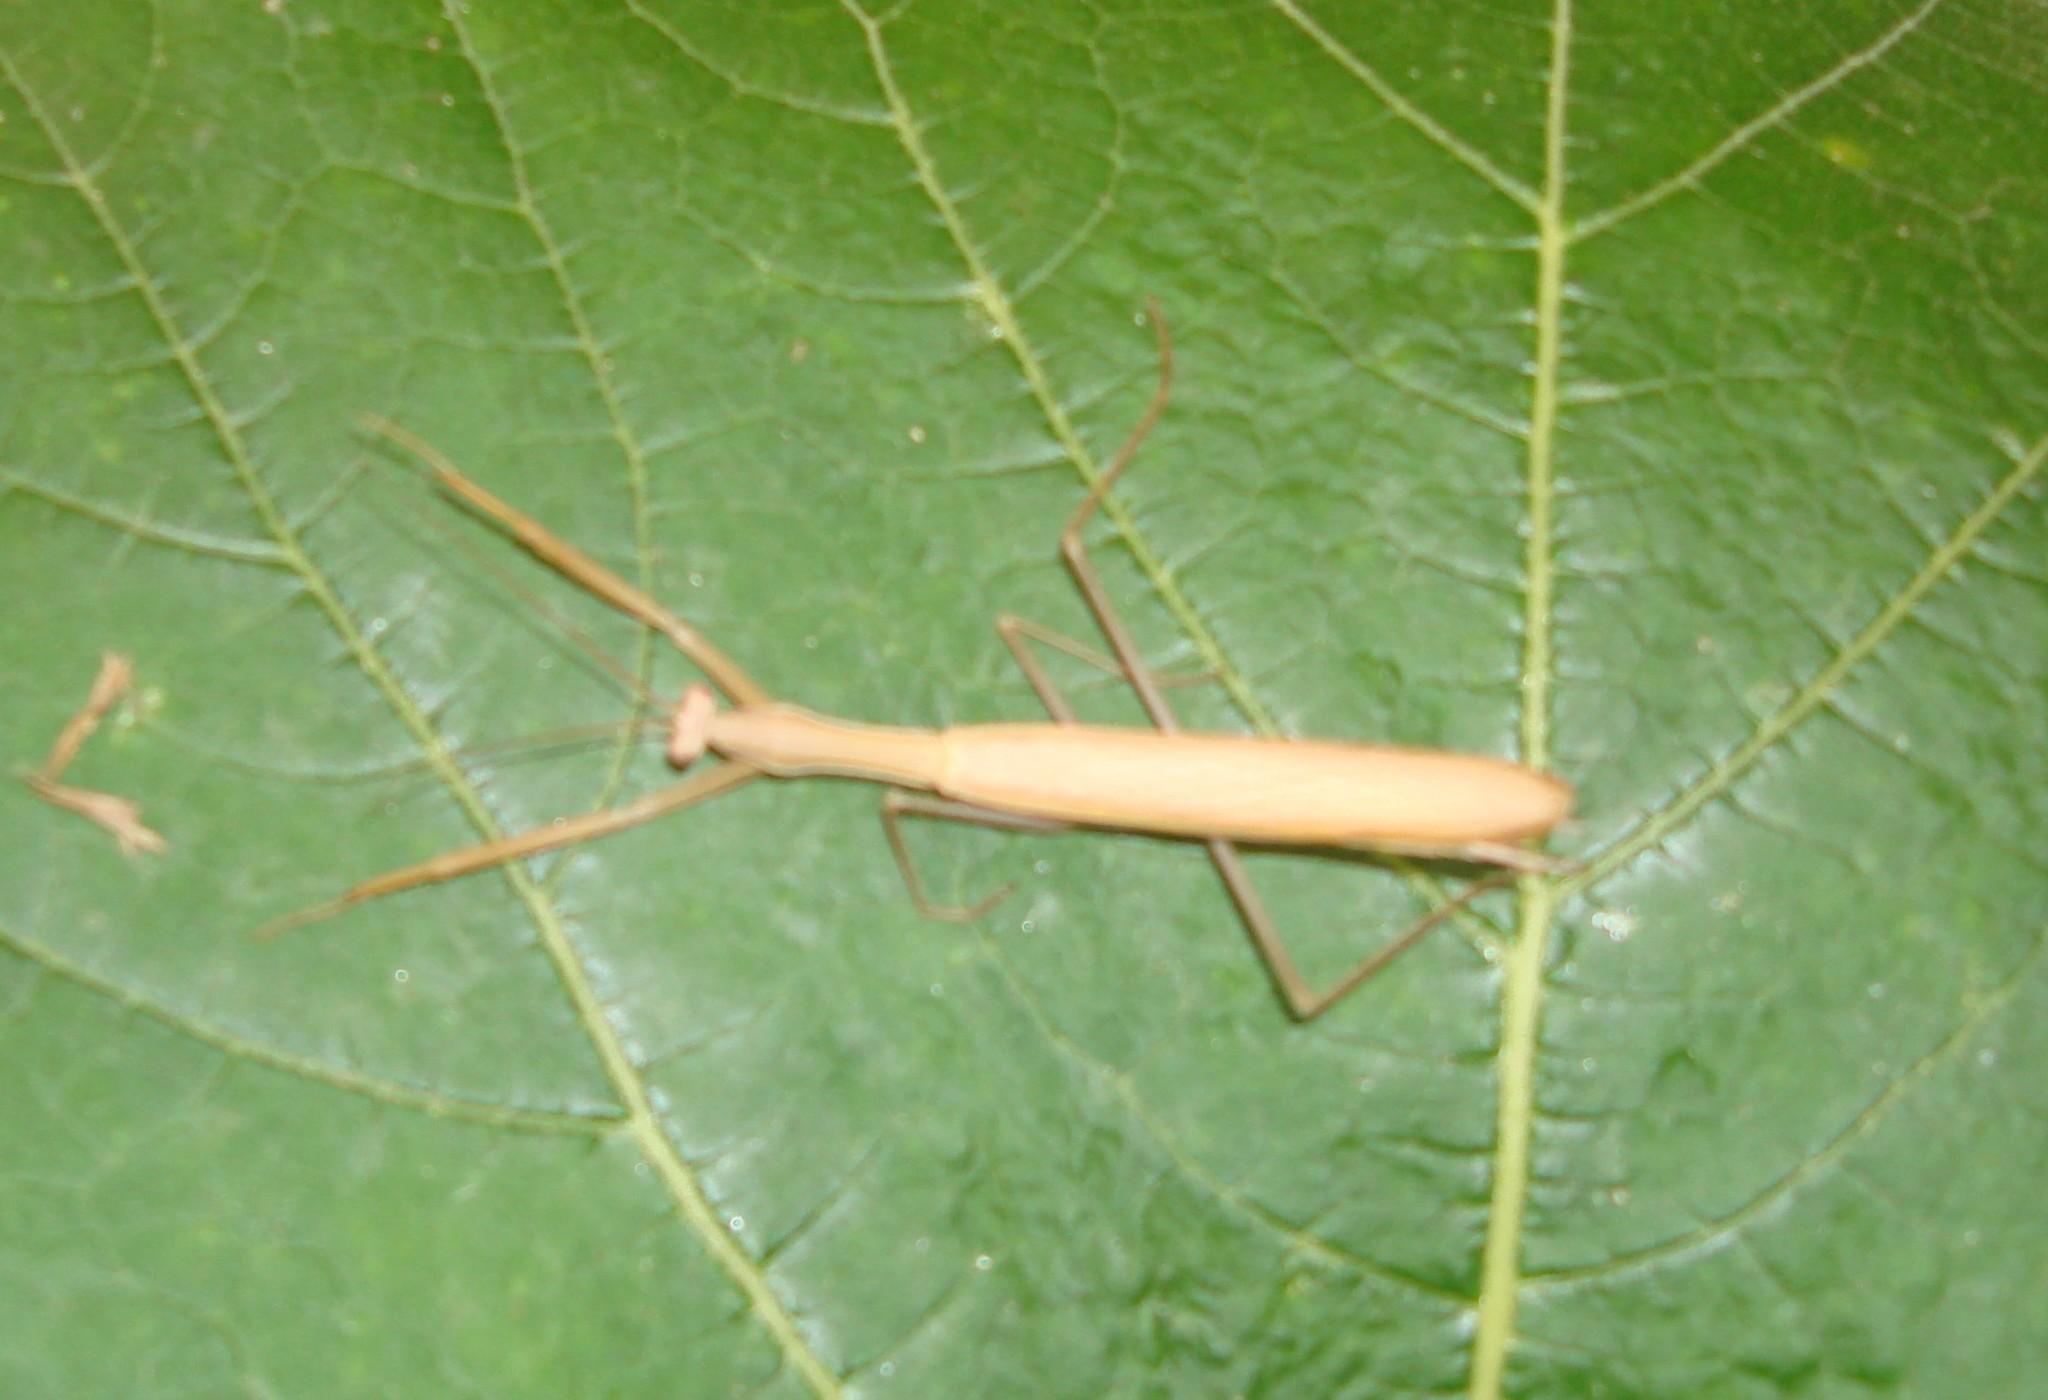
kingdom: Animalia
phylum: Arthropoda
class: Insecta
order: Mantodea
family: Mantidae
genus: Mantis
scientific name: Mantis religiosa
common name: Praying mantis
